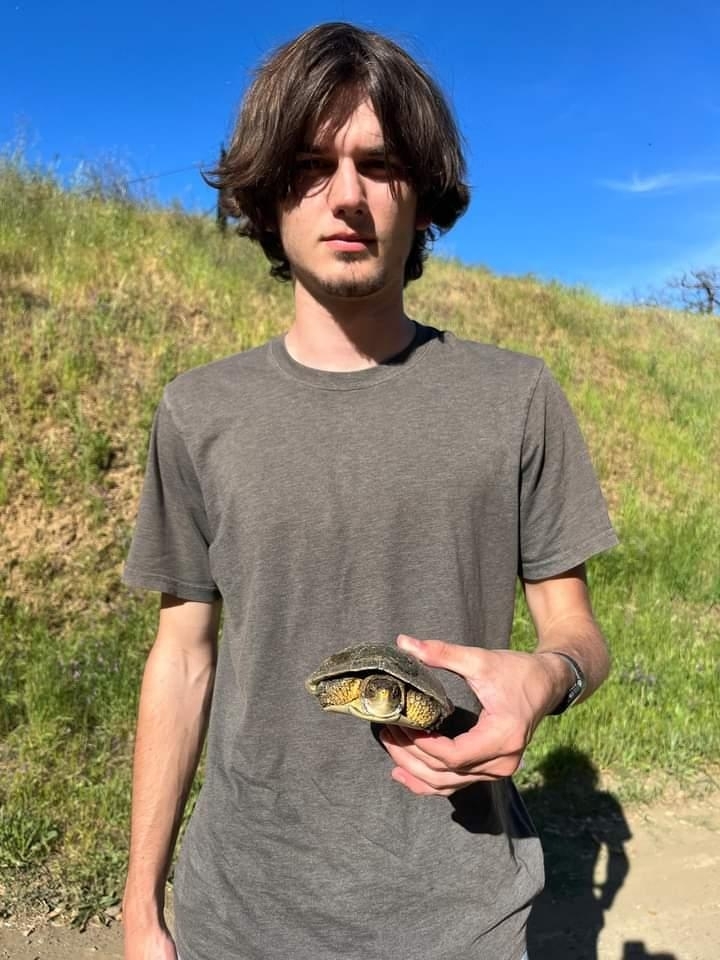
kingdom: Animalia
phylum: Chordata
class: Testudines
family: Emydidae
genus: Actinemys
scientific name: Actinemys marmorata
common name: Western pond turtle
